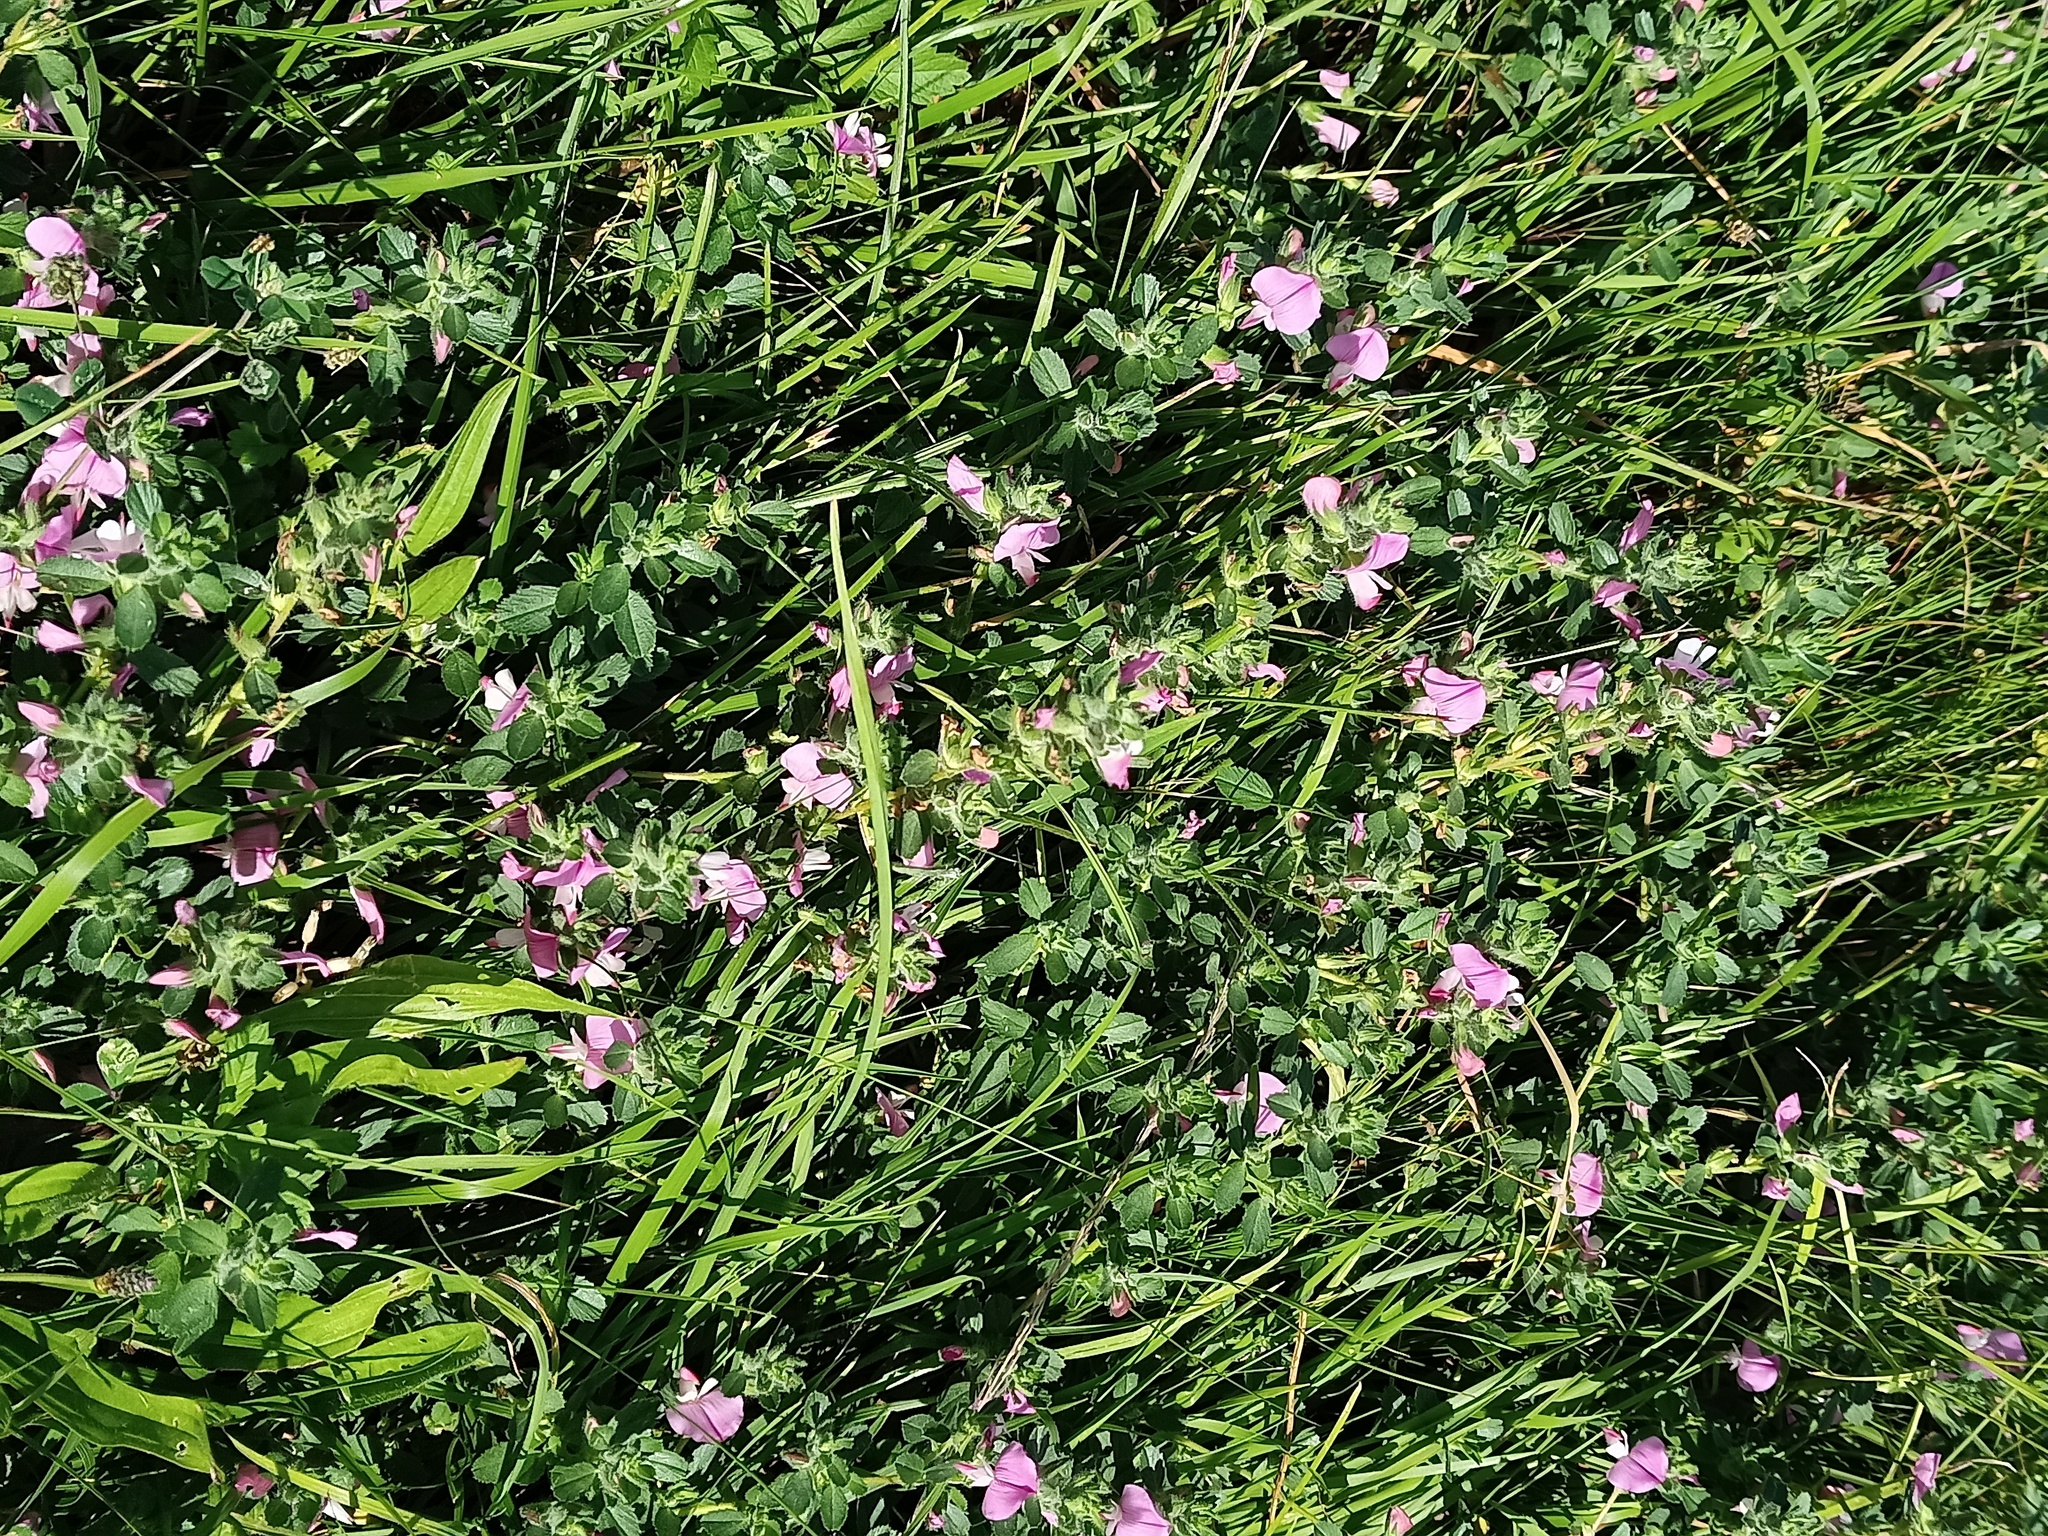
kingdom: Plantae
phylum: Tracheophyta
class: Magnoliopsida
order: Fabales
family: Fabaceae
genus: Ononis
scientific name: Ononis spinosa
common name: Spiny restharrow
